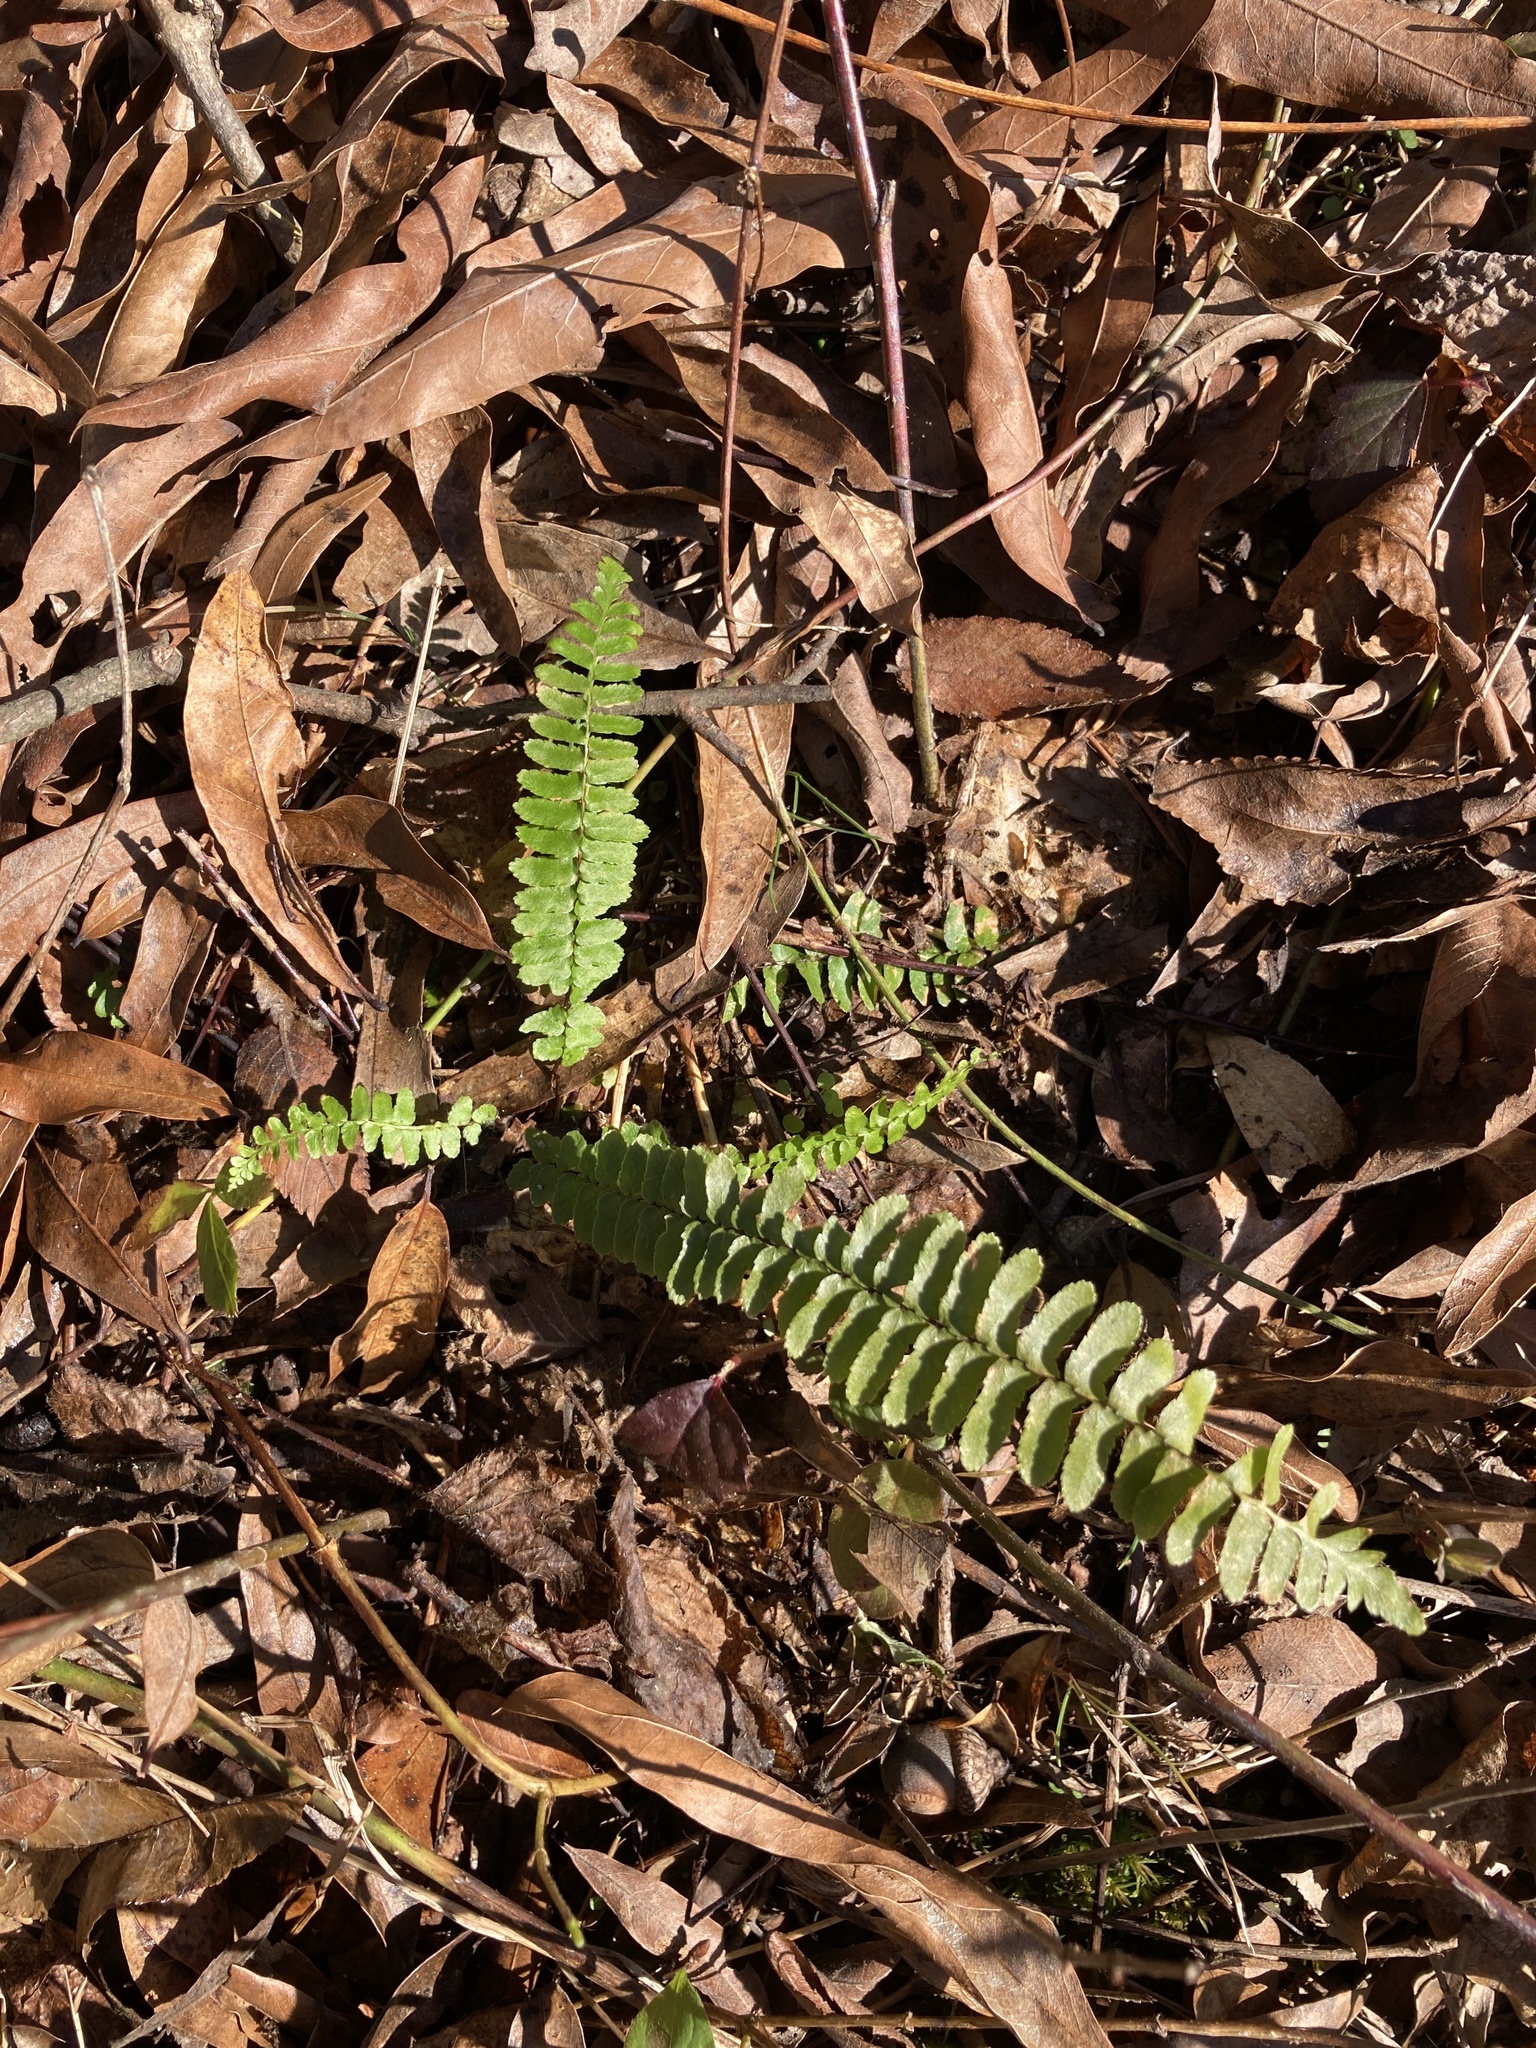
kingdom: Plantae
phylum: Tracheophyta
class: Polypodiopsida
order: Polypodiales
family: Aspleniaceae
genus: Asplenium
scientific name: Asplenium platyneuron
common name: Ebony spleenwort
